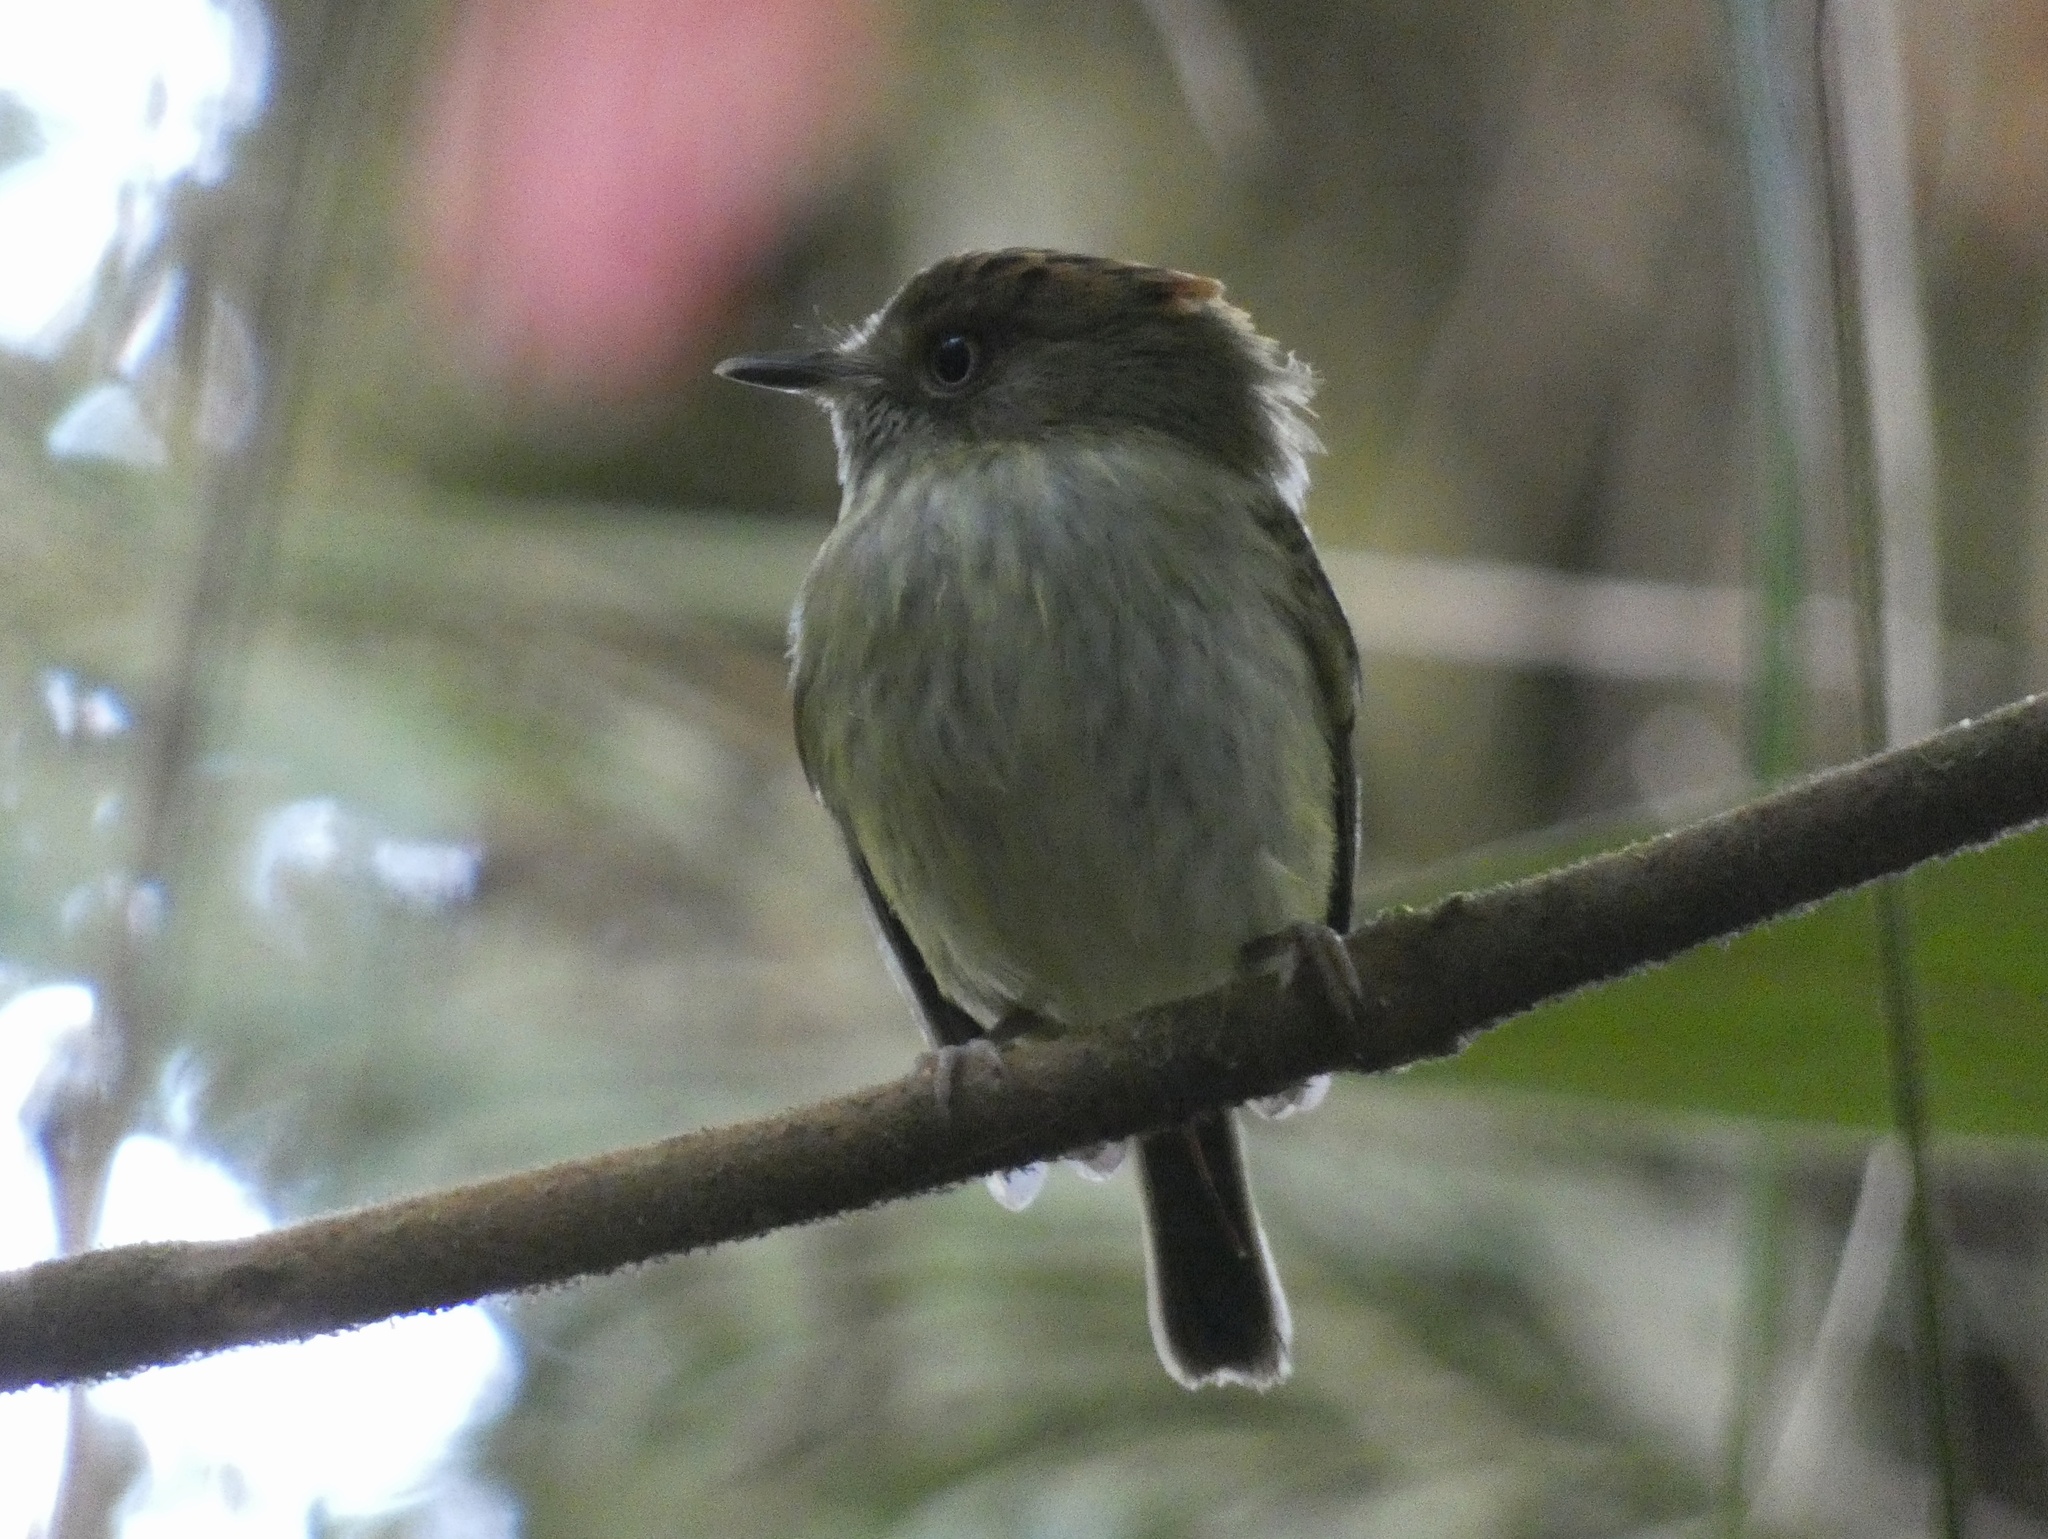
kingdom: Animalia
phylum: Chordata
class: Aves
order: Passeriformes
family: Tyrannidae
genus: Lophotriccus
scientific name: Lophotriccus pileatus
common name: Scale-crested pygmy-tyrant
